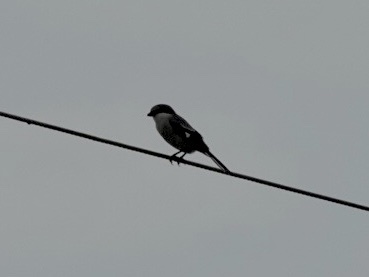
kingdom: Animalia
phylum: Chordata
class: Aves
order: Passeriformes
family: Laniidae
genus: Lanius
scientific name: Lanius ludovicianus
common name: Loggerhead shrike
